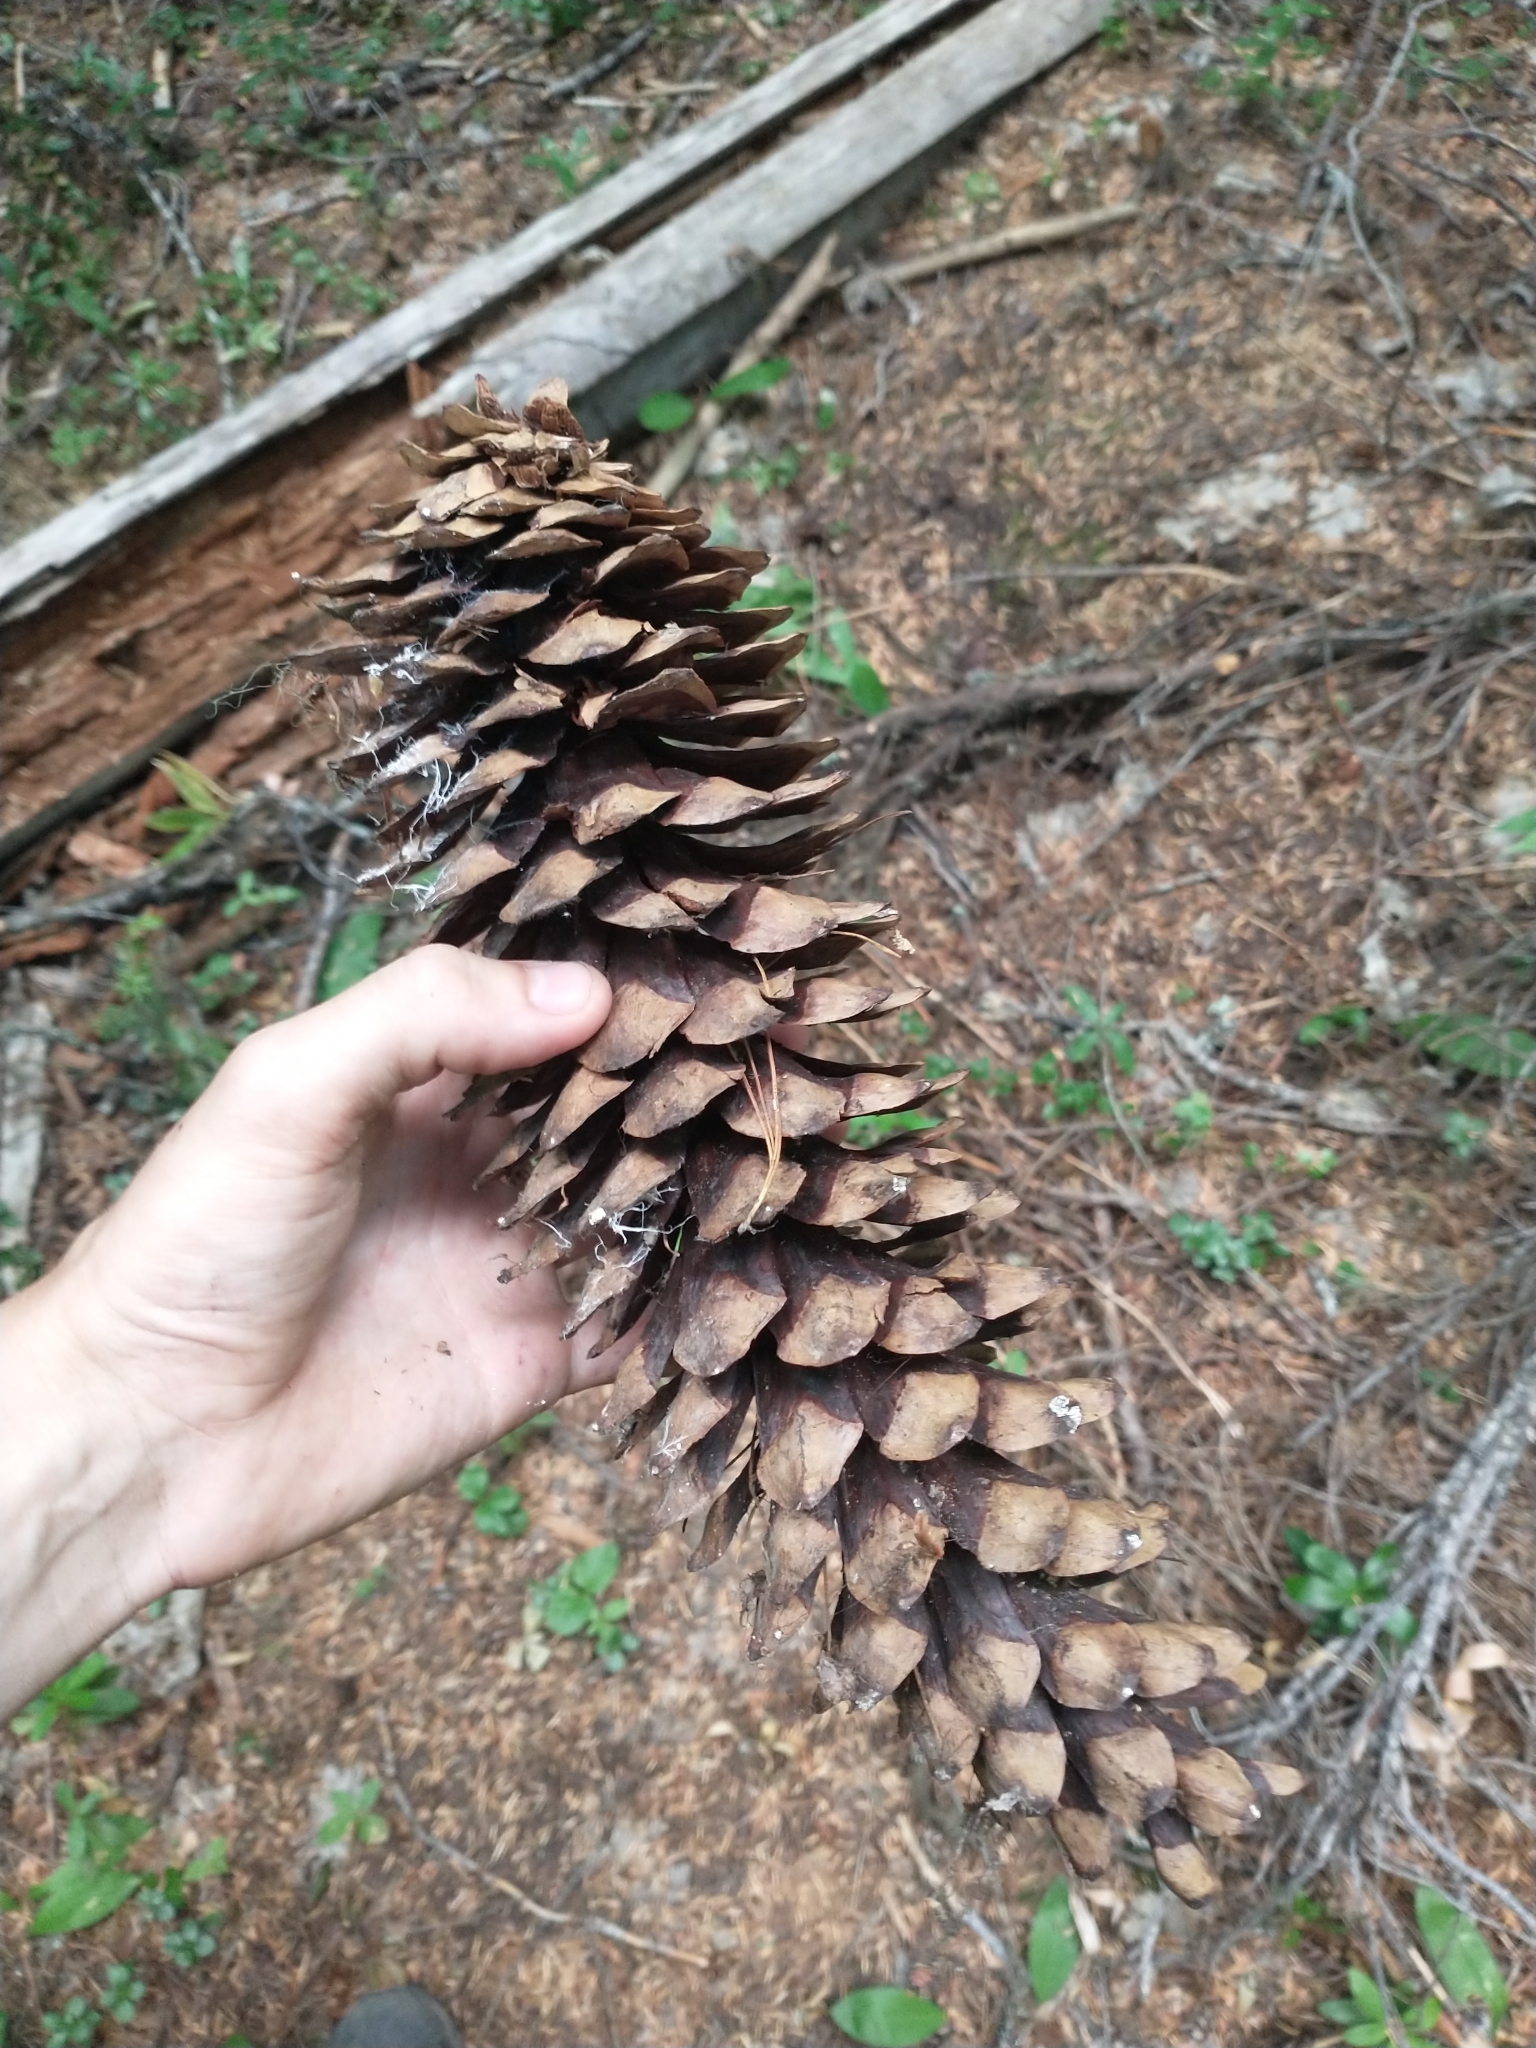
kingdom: Plantae
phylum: Tracheophyta
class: Pinopsida
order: Pinales
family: Pinaceae
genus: Pinus
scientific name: Pinus monticola
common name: Western white pine
